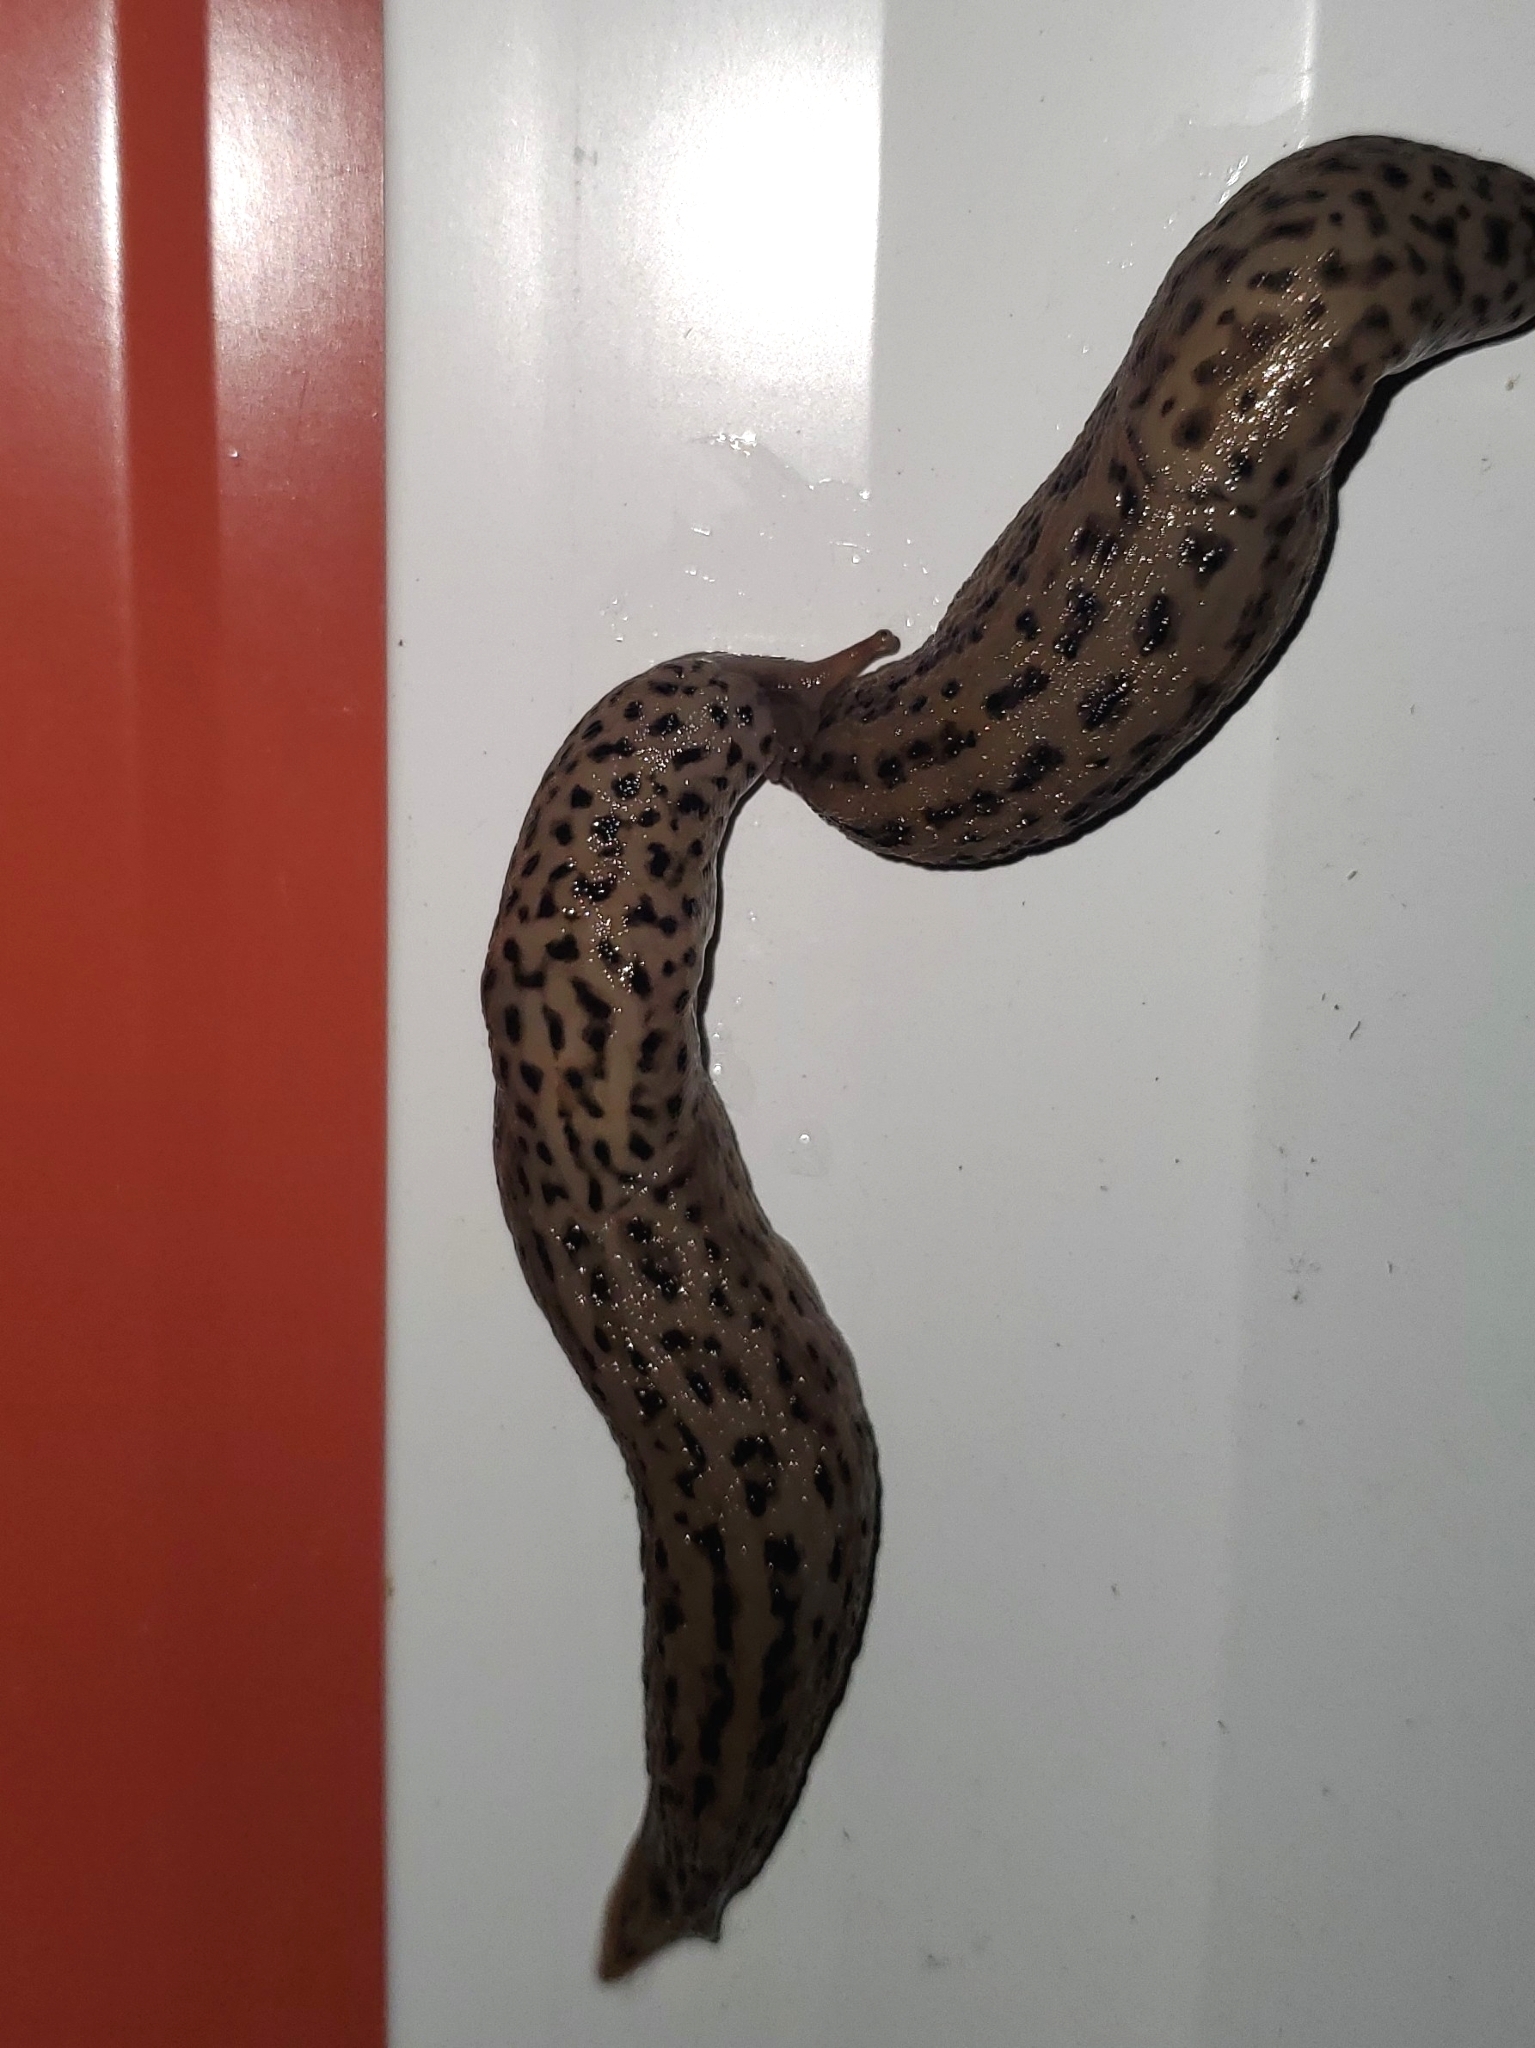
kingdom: Animalia
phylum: Mollusca
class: Gastropoda
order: Stylommatophora
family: Limacidae
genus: Limax
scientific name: Limax maximus
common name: Great grey slug
